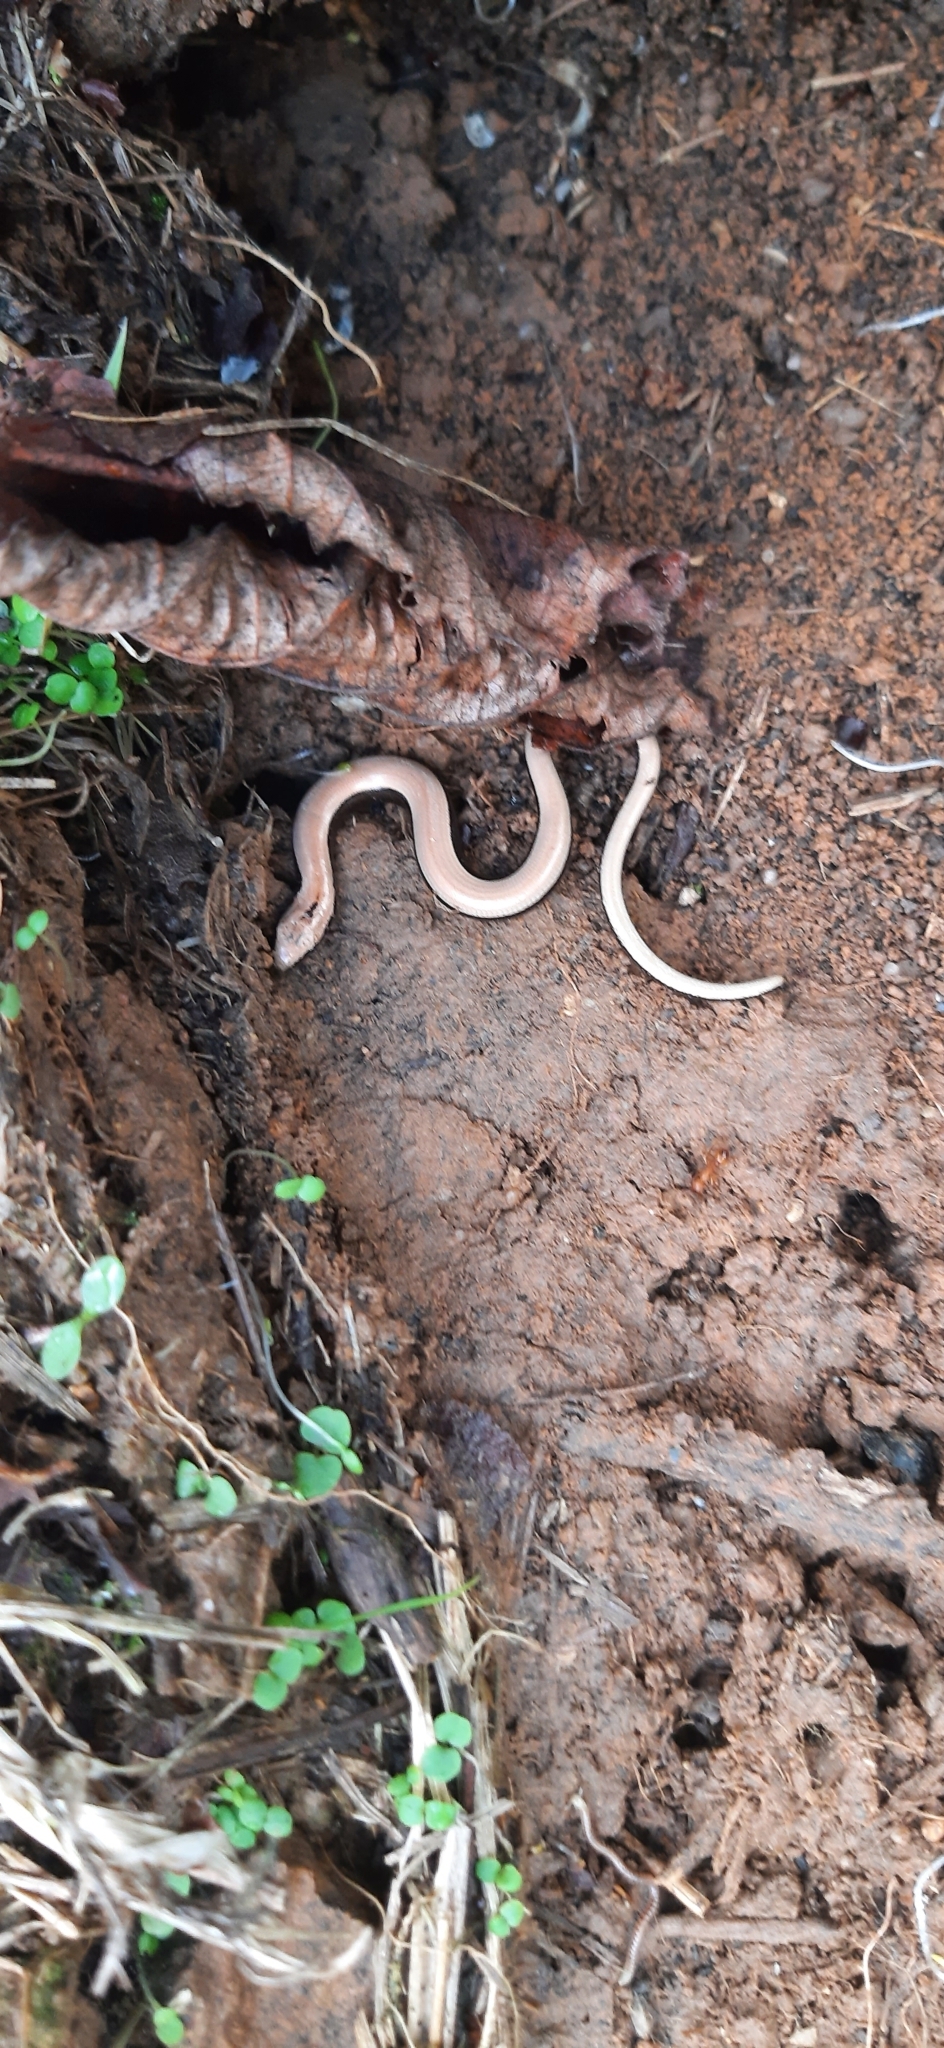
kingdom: Animalia
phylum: Chordata
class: Squamata
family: Anguidae
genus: Anguis
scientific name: Anguis fragilis
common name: Slow worm
